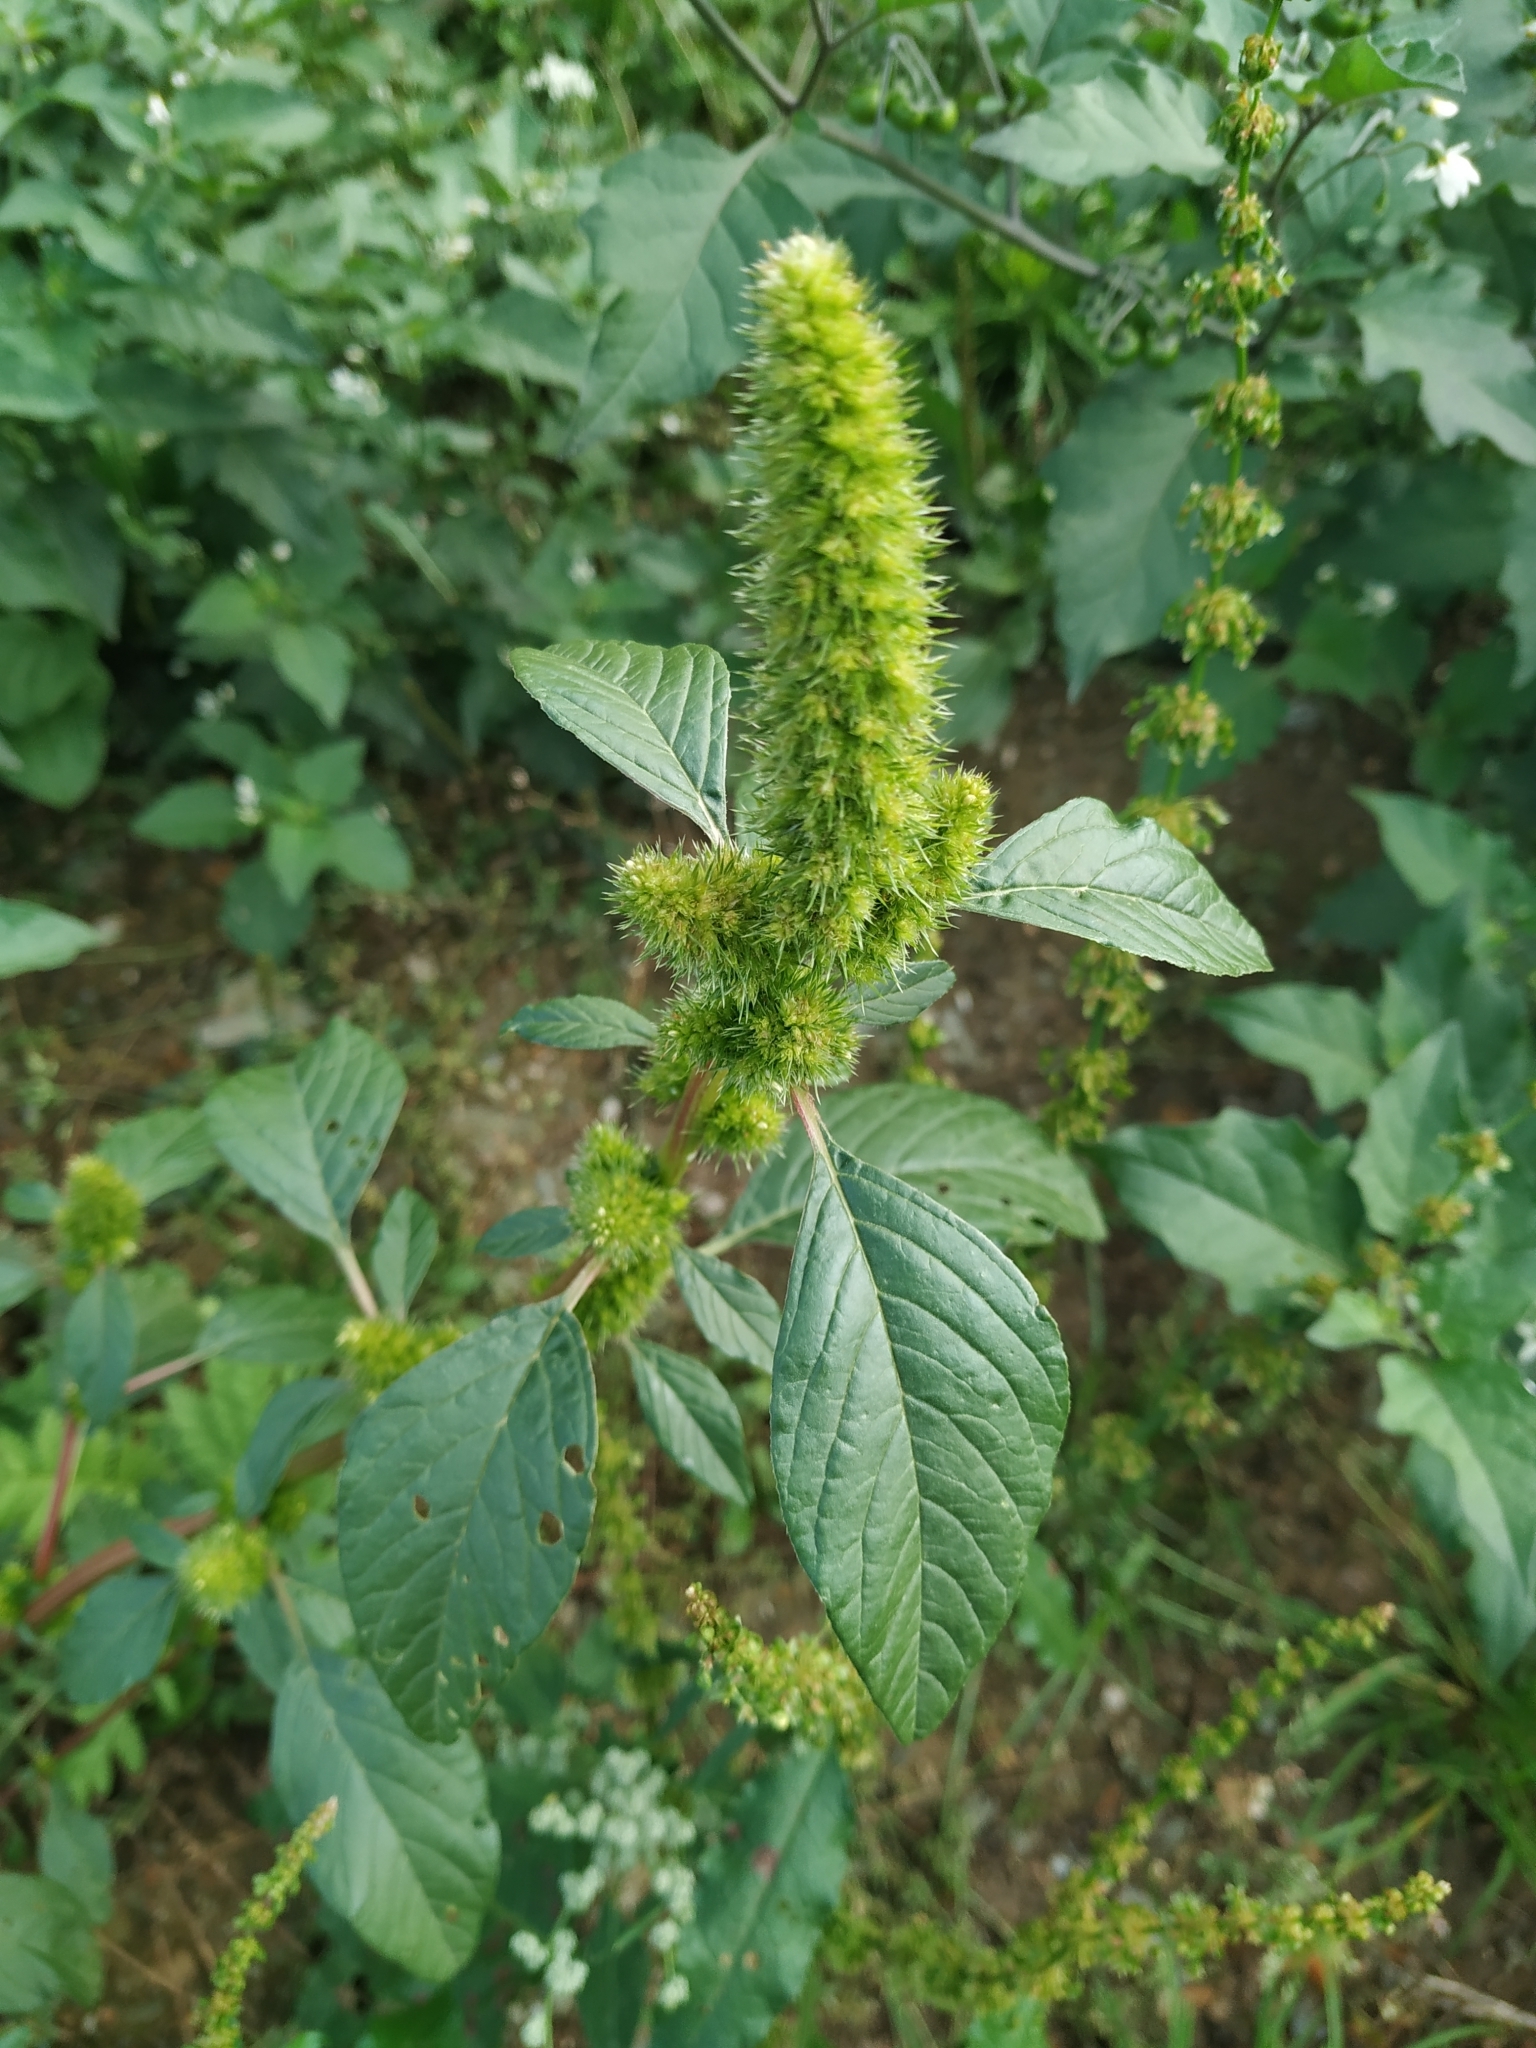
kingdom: Plantae
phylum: Tracheophyta
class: Magnoliopsida
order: Caryophyllales
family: Amaranthaceae
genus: Amaranthus
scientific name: Amaranthus retroflexus
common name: Redroot amaranth
